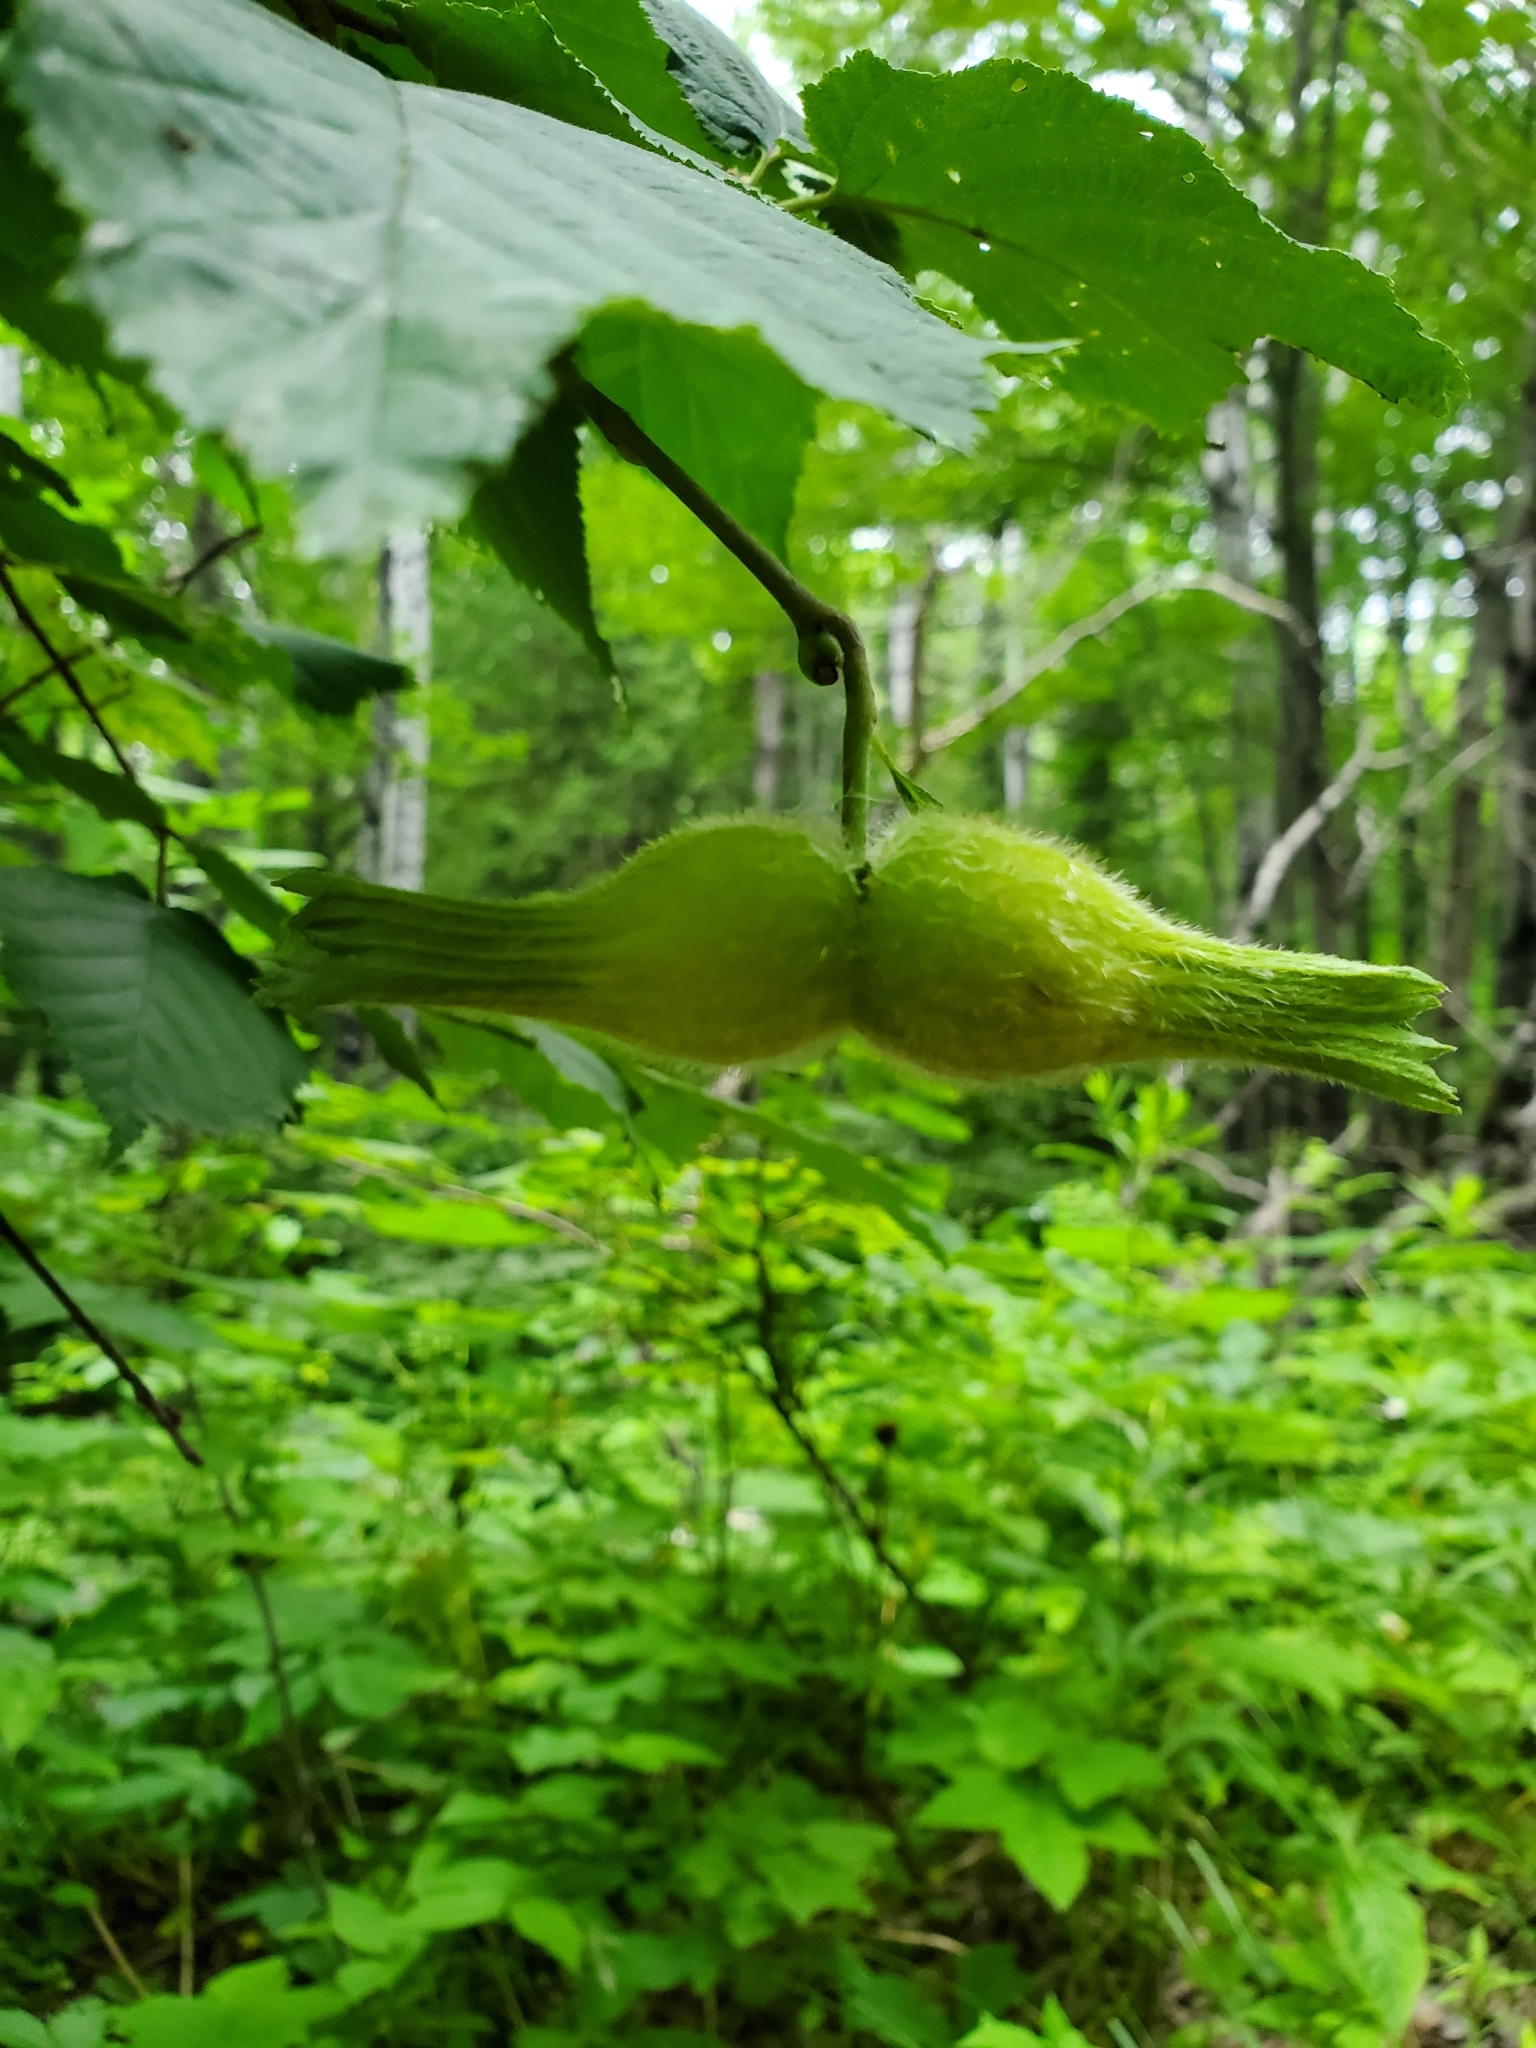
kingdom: Plantae
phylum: Tracheophyta
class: Magnoliopsida
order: Fagales
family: Betulaceae
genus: Corylus
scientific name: Corylus cornuta
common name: Beaked hazel
